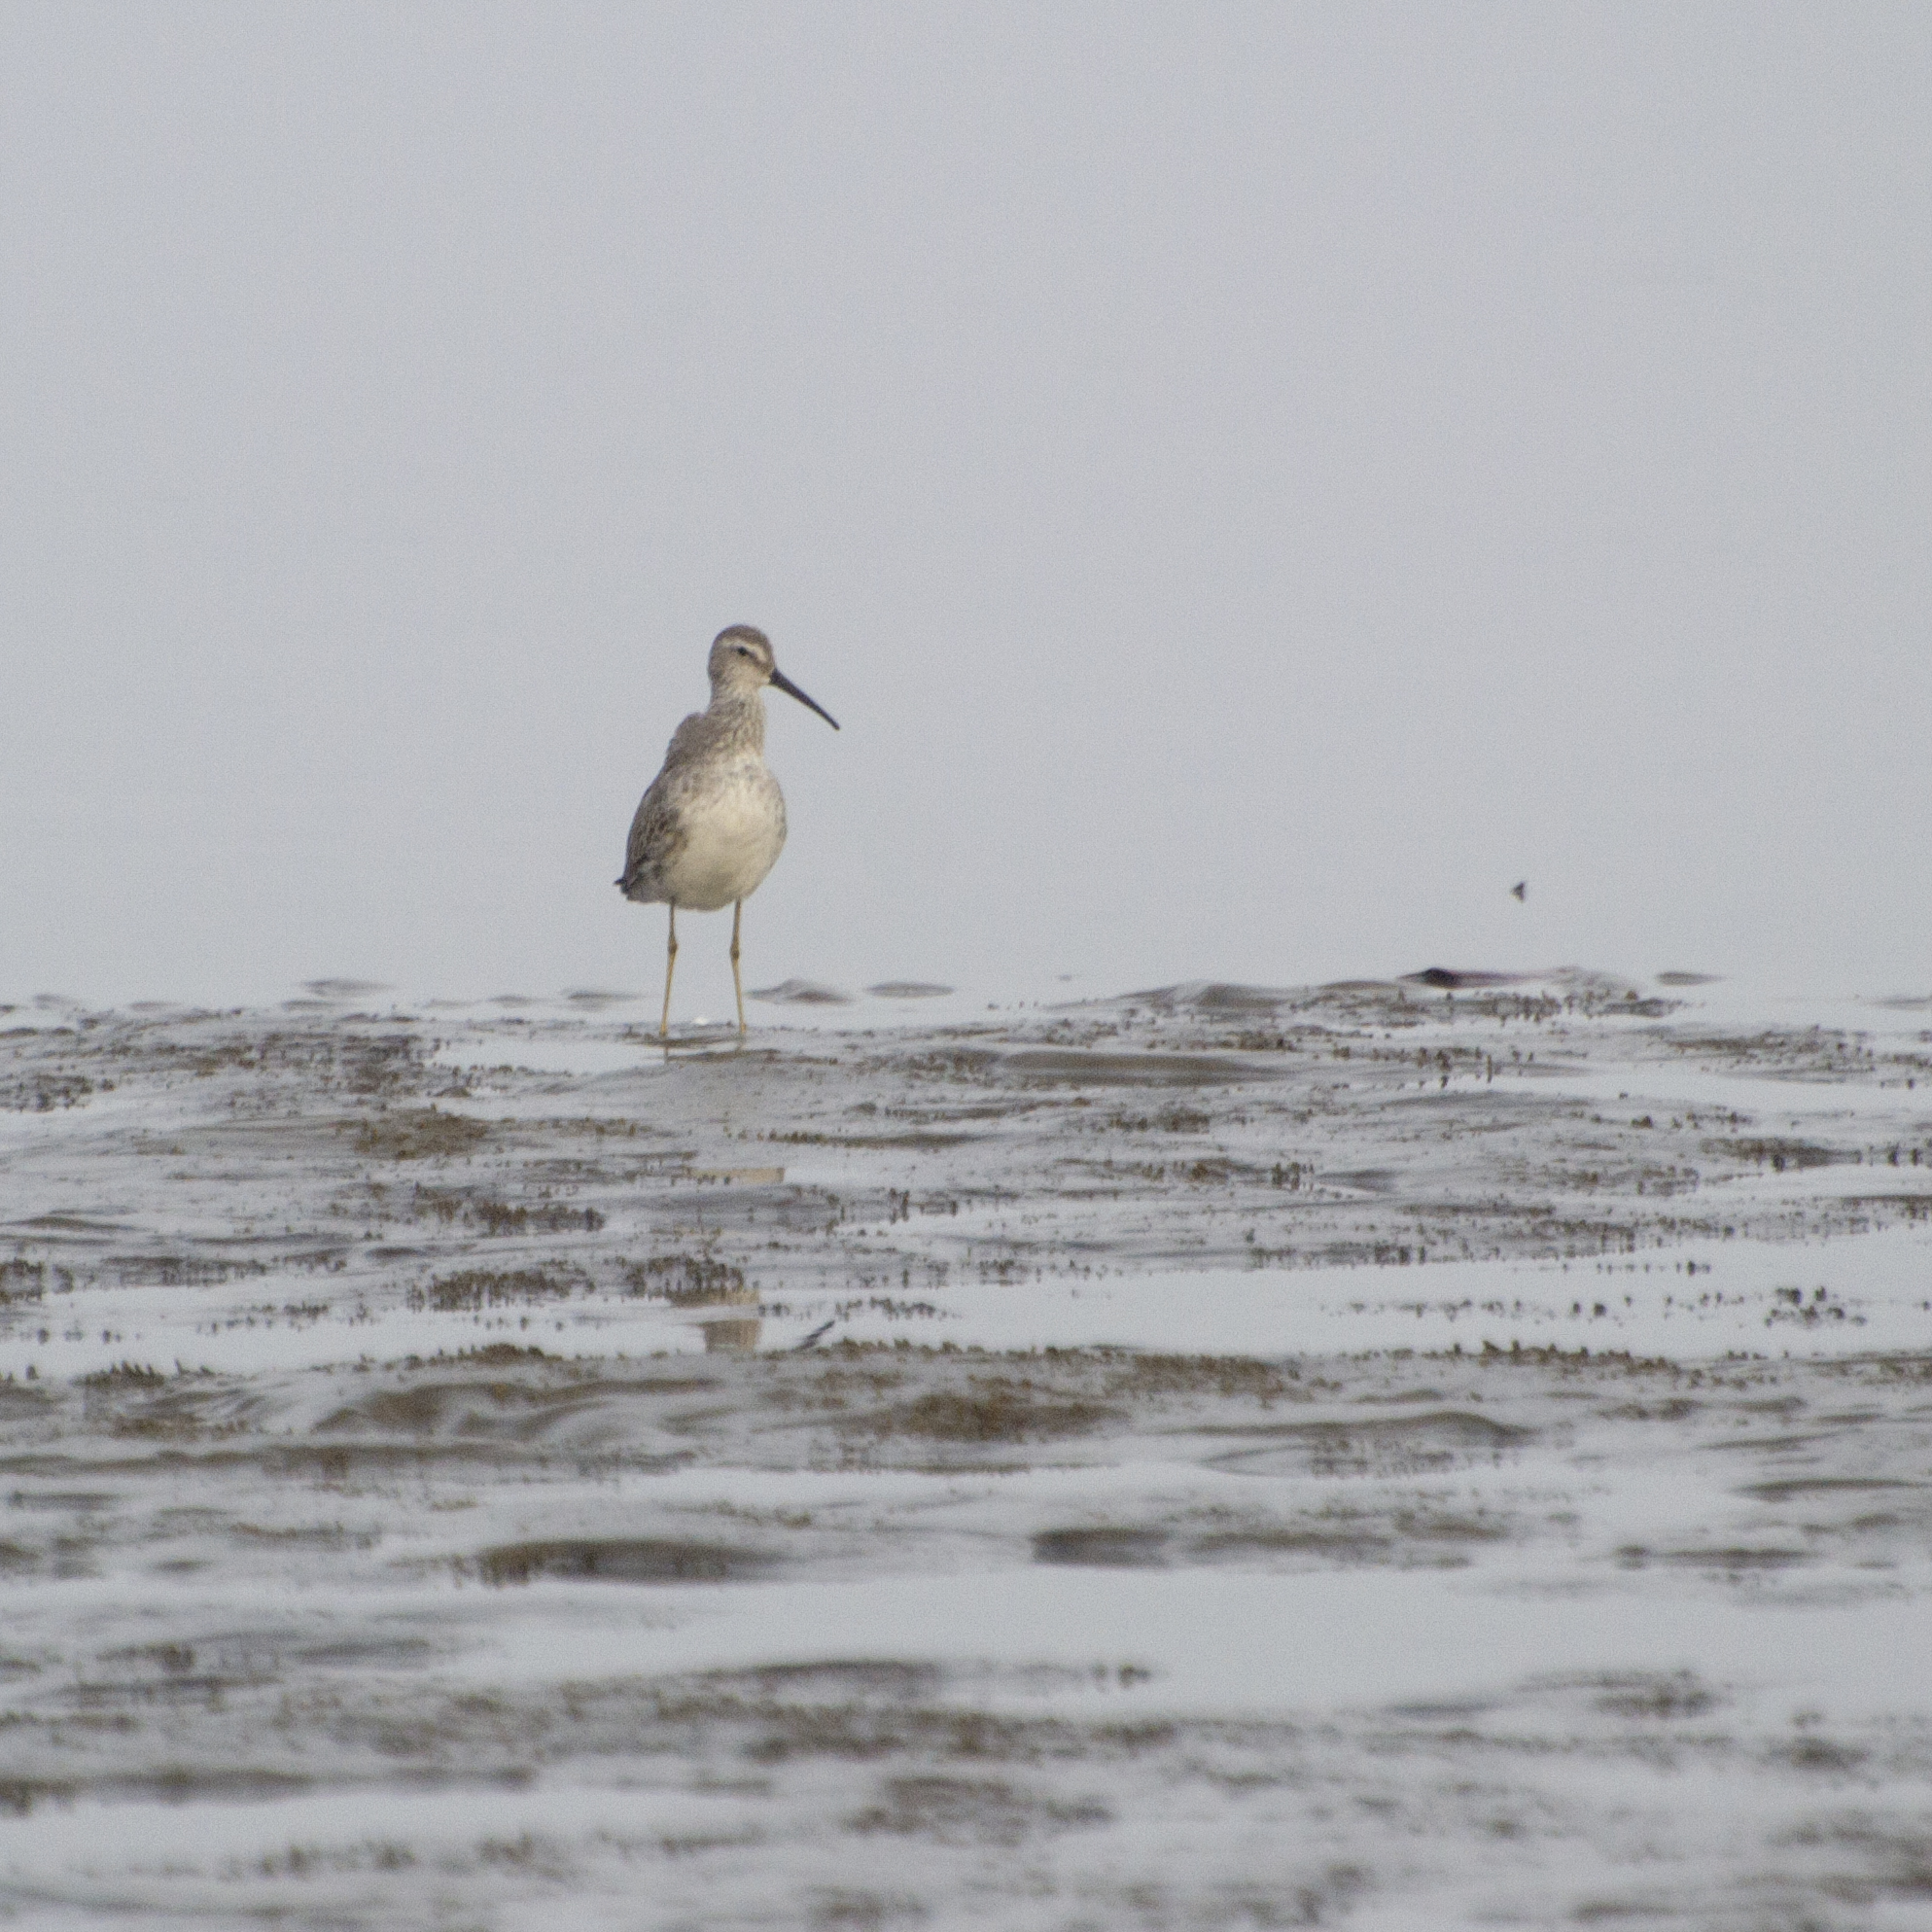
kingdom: Animalia
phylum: Chordata
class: Aves
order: Charadriiformes
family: Scolopacidae
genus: Calidris
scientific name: Calidris himantopus
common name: Stilt sandpiper
